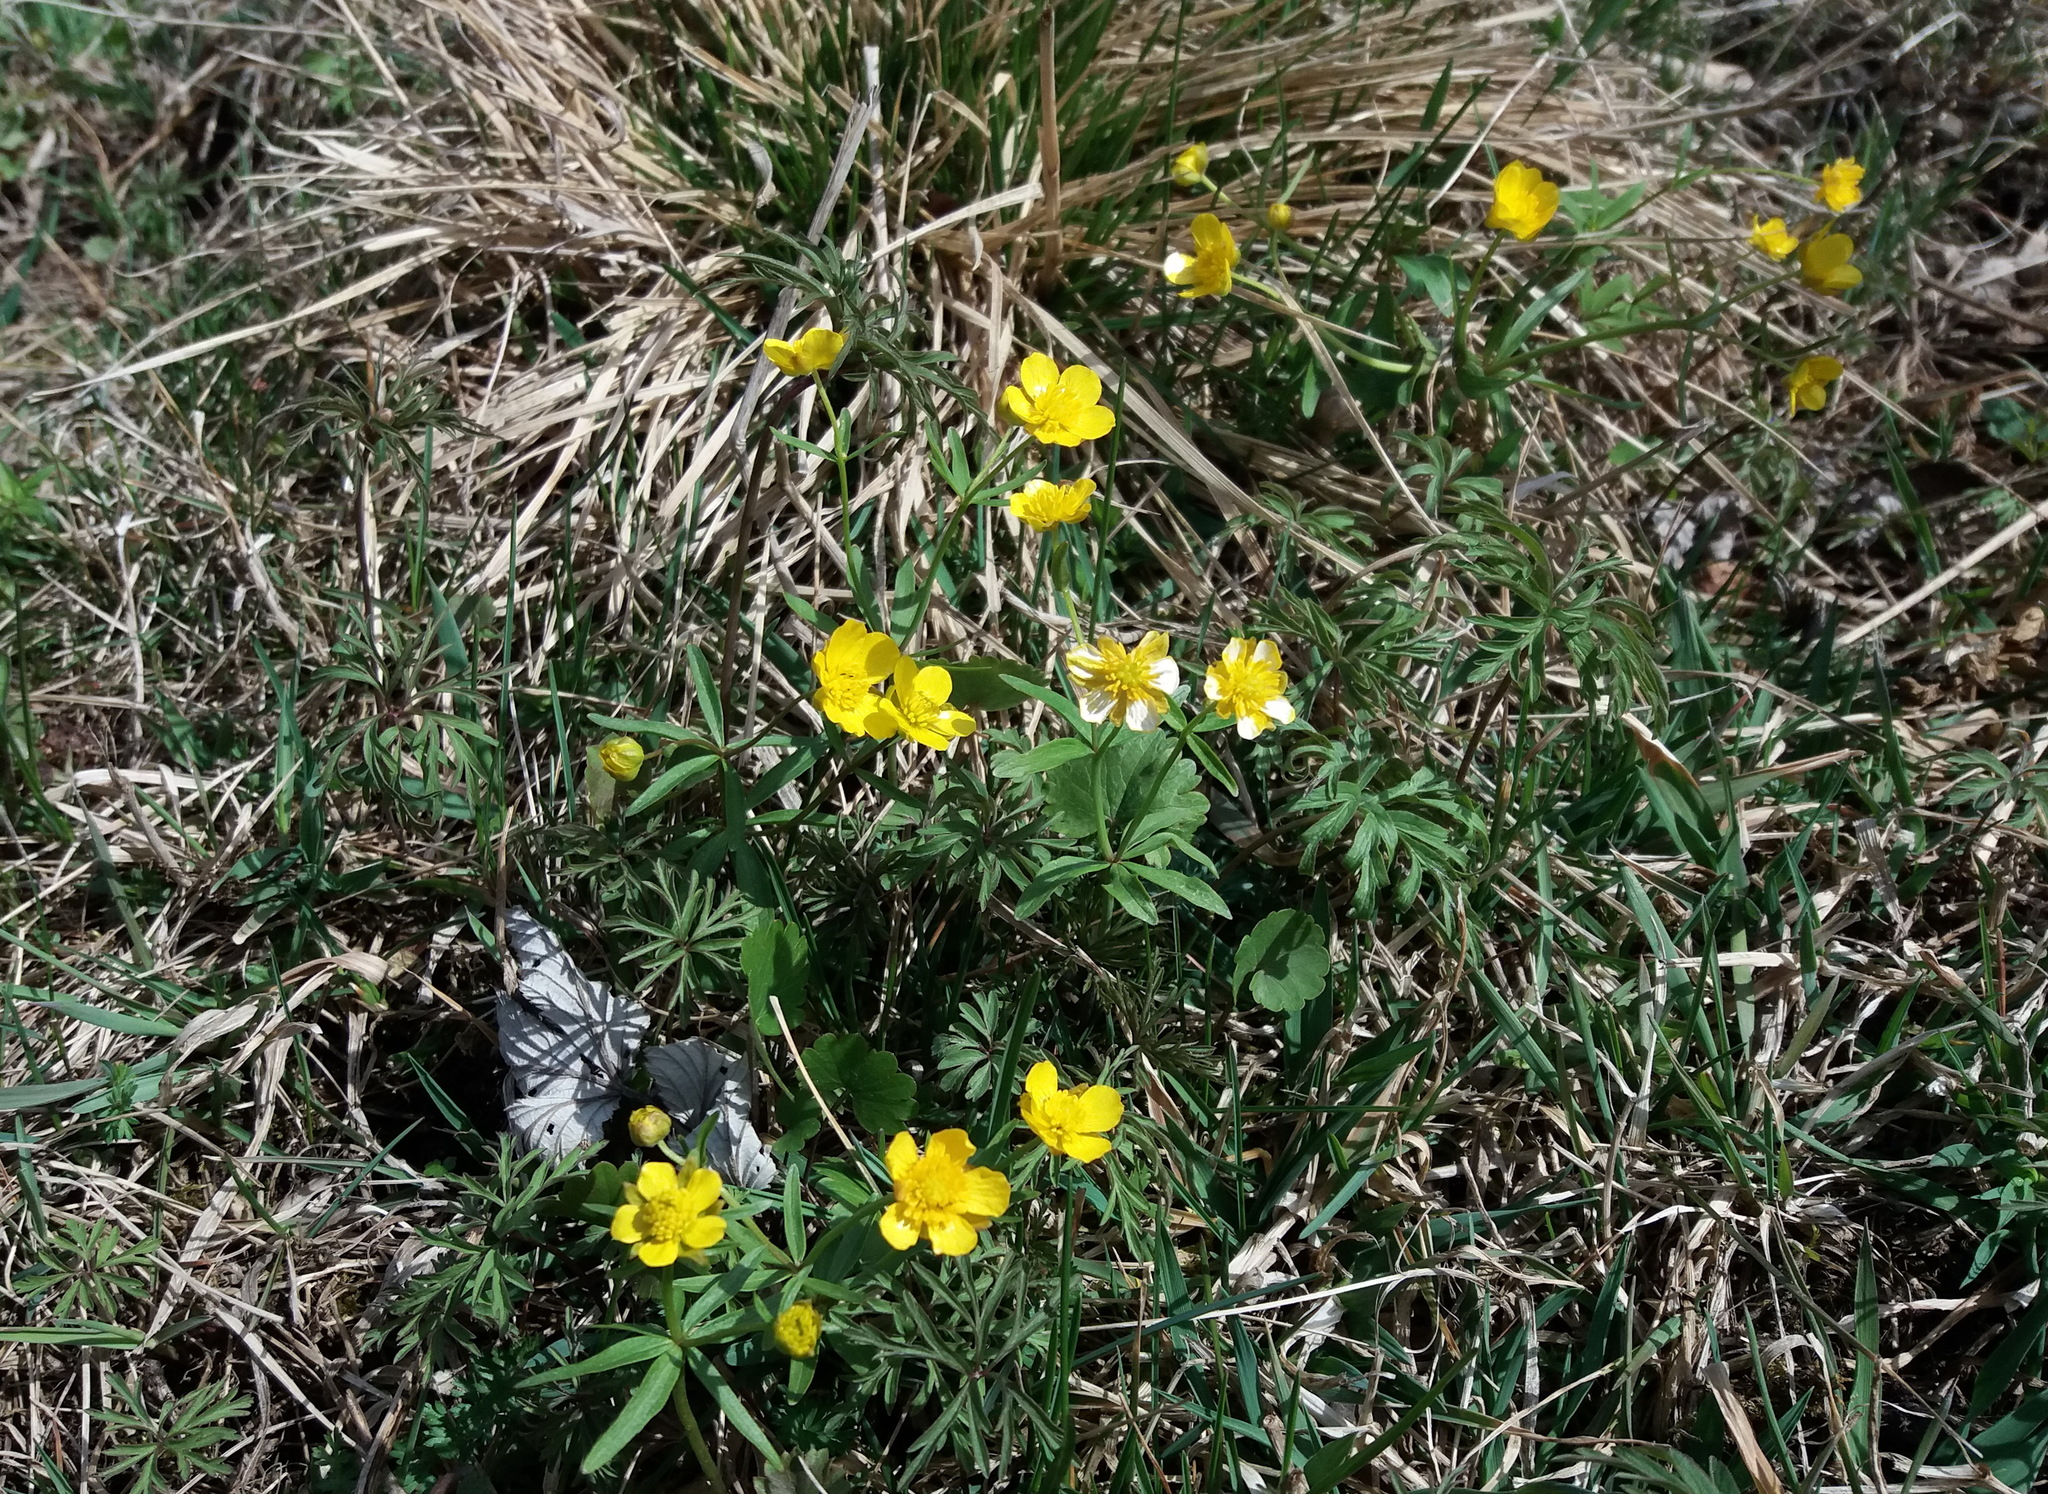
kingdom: Plantae
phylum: Tracheophyta
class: Magnoliopsida
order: Ranunculales
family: Ranunculaceae
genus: Ranunculus
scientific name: Ranunculus monophyllus
